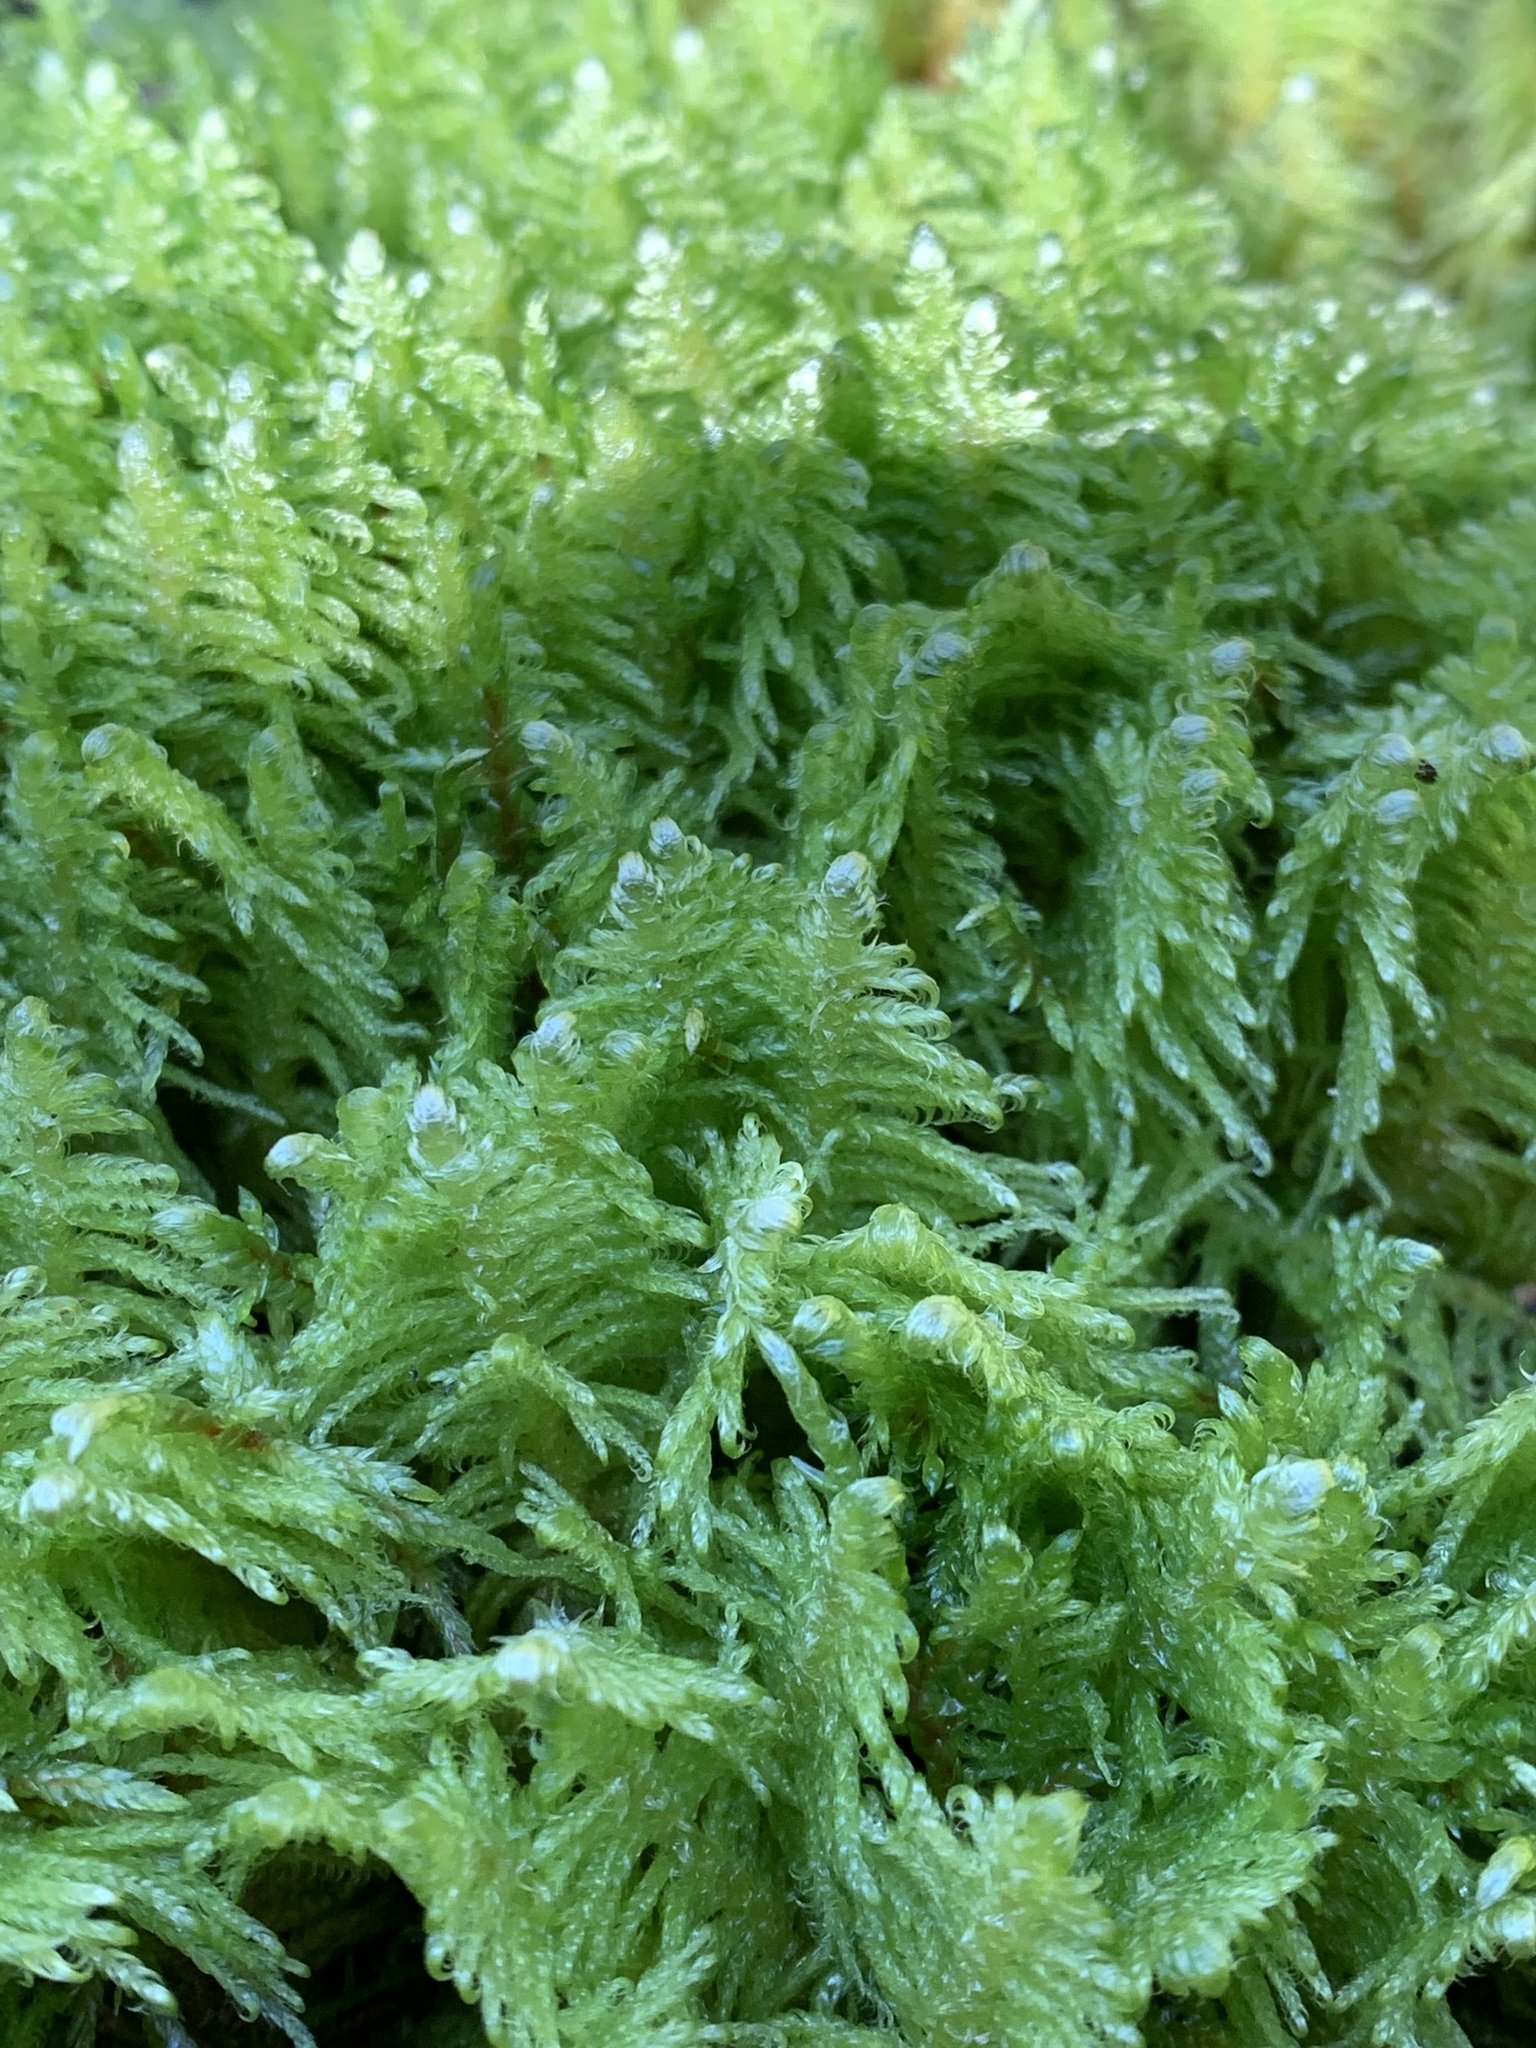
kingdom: Plantae
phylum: Bryophyta
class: Bryopsida
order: Hypnales
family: Pylaisiaceae
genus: Ptilium
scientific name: Ptilium crista-castrensis
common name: Knight's plume moss
